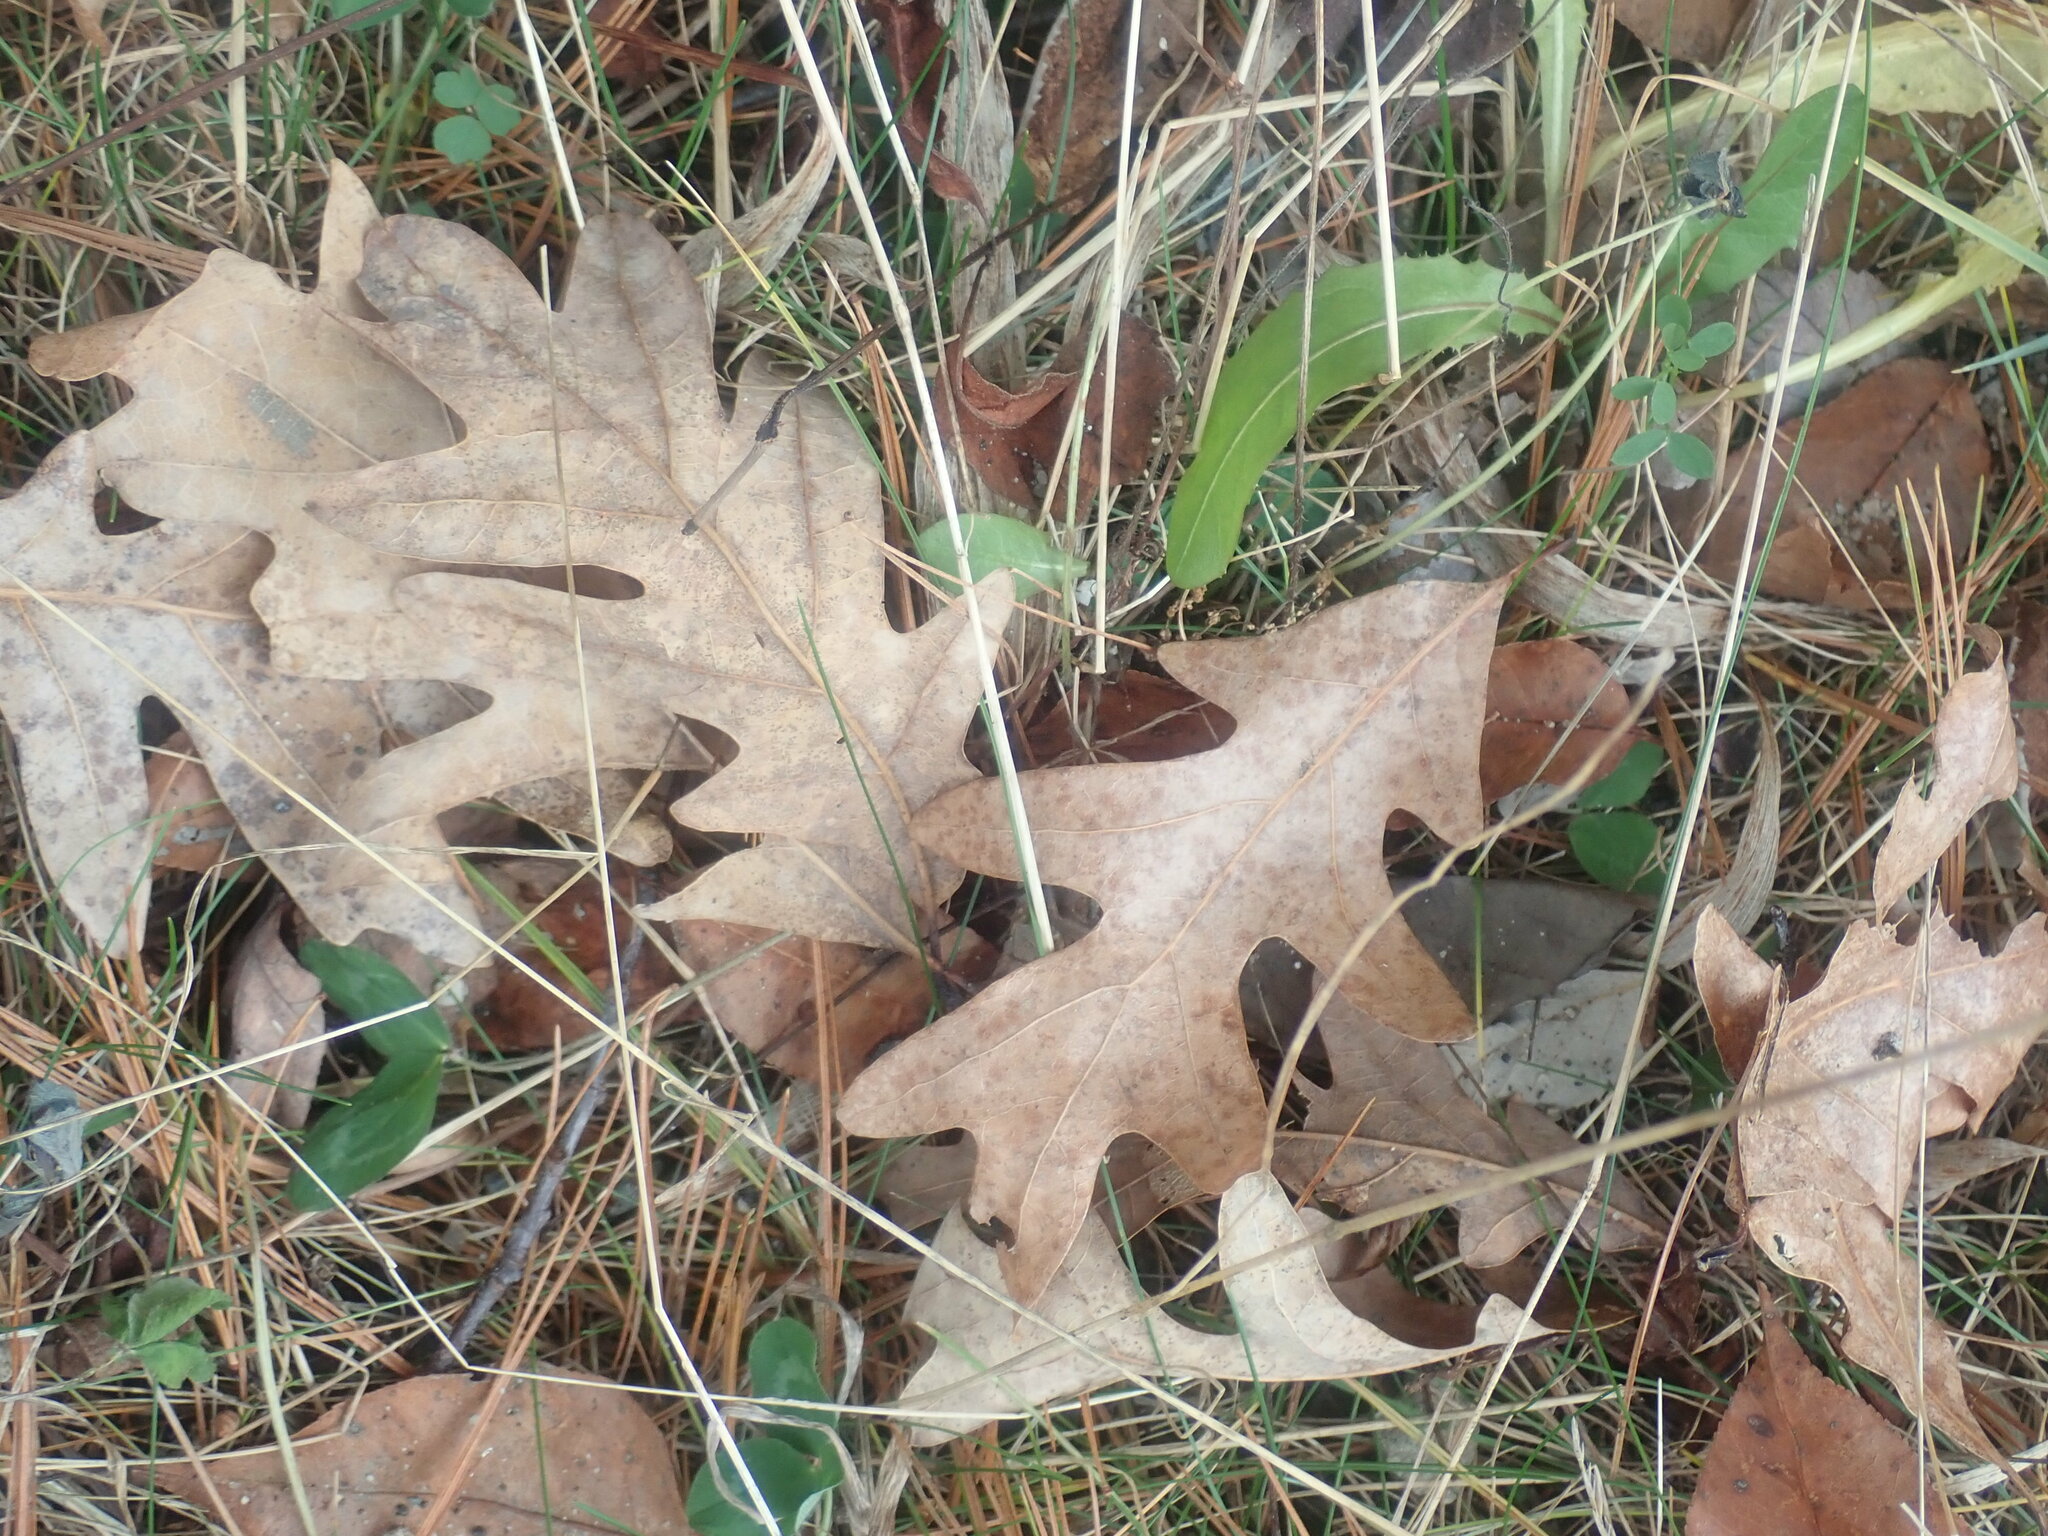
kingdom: Plantae
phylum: Tracheophyta
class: Magnoliopsida
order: Fagales
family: Fagaceae
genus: Quercus
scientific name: Quercus alba
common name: White oak
